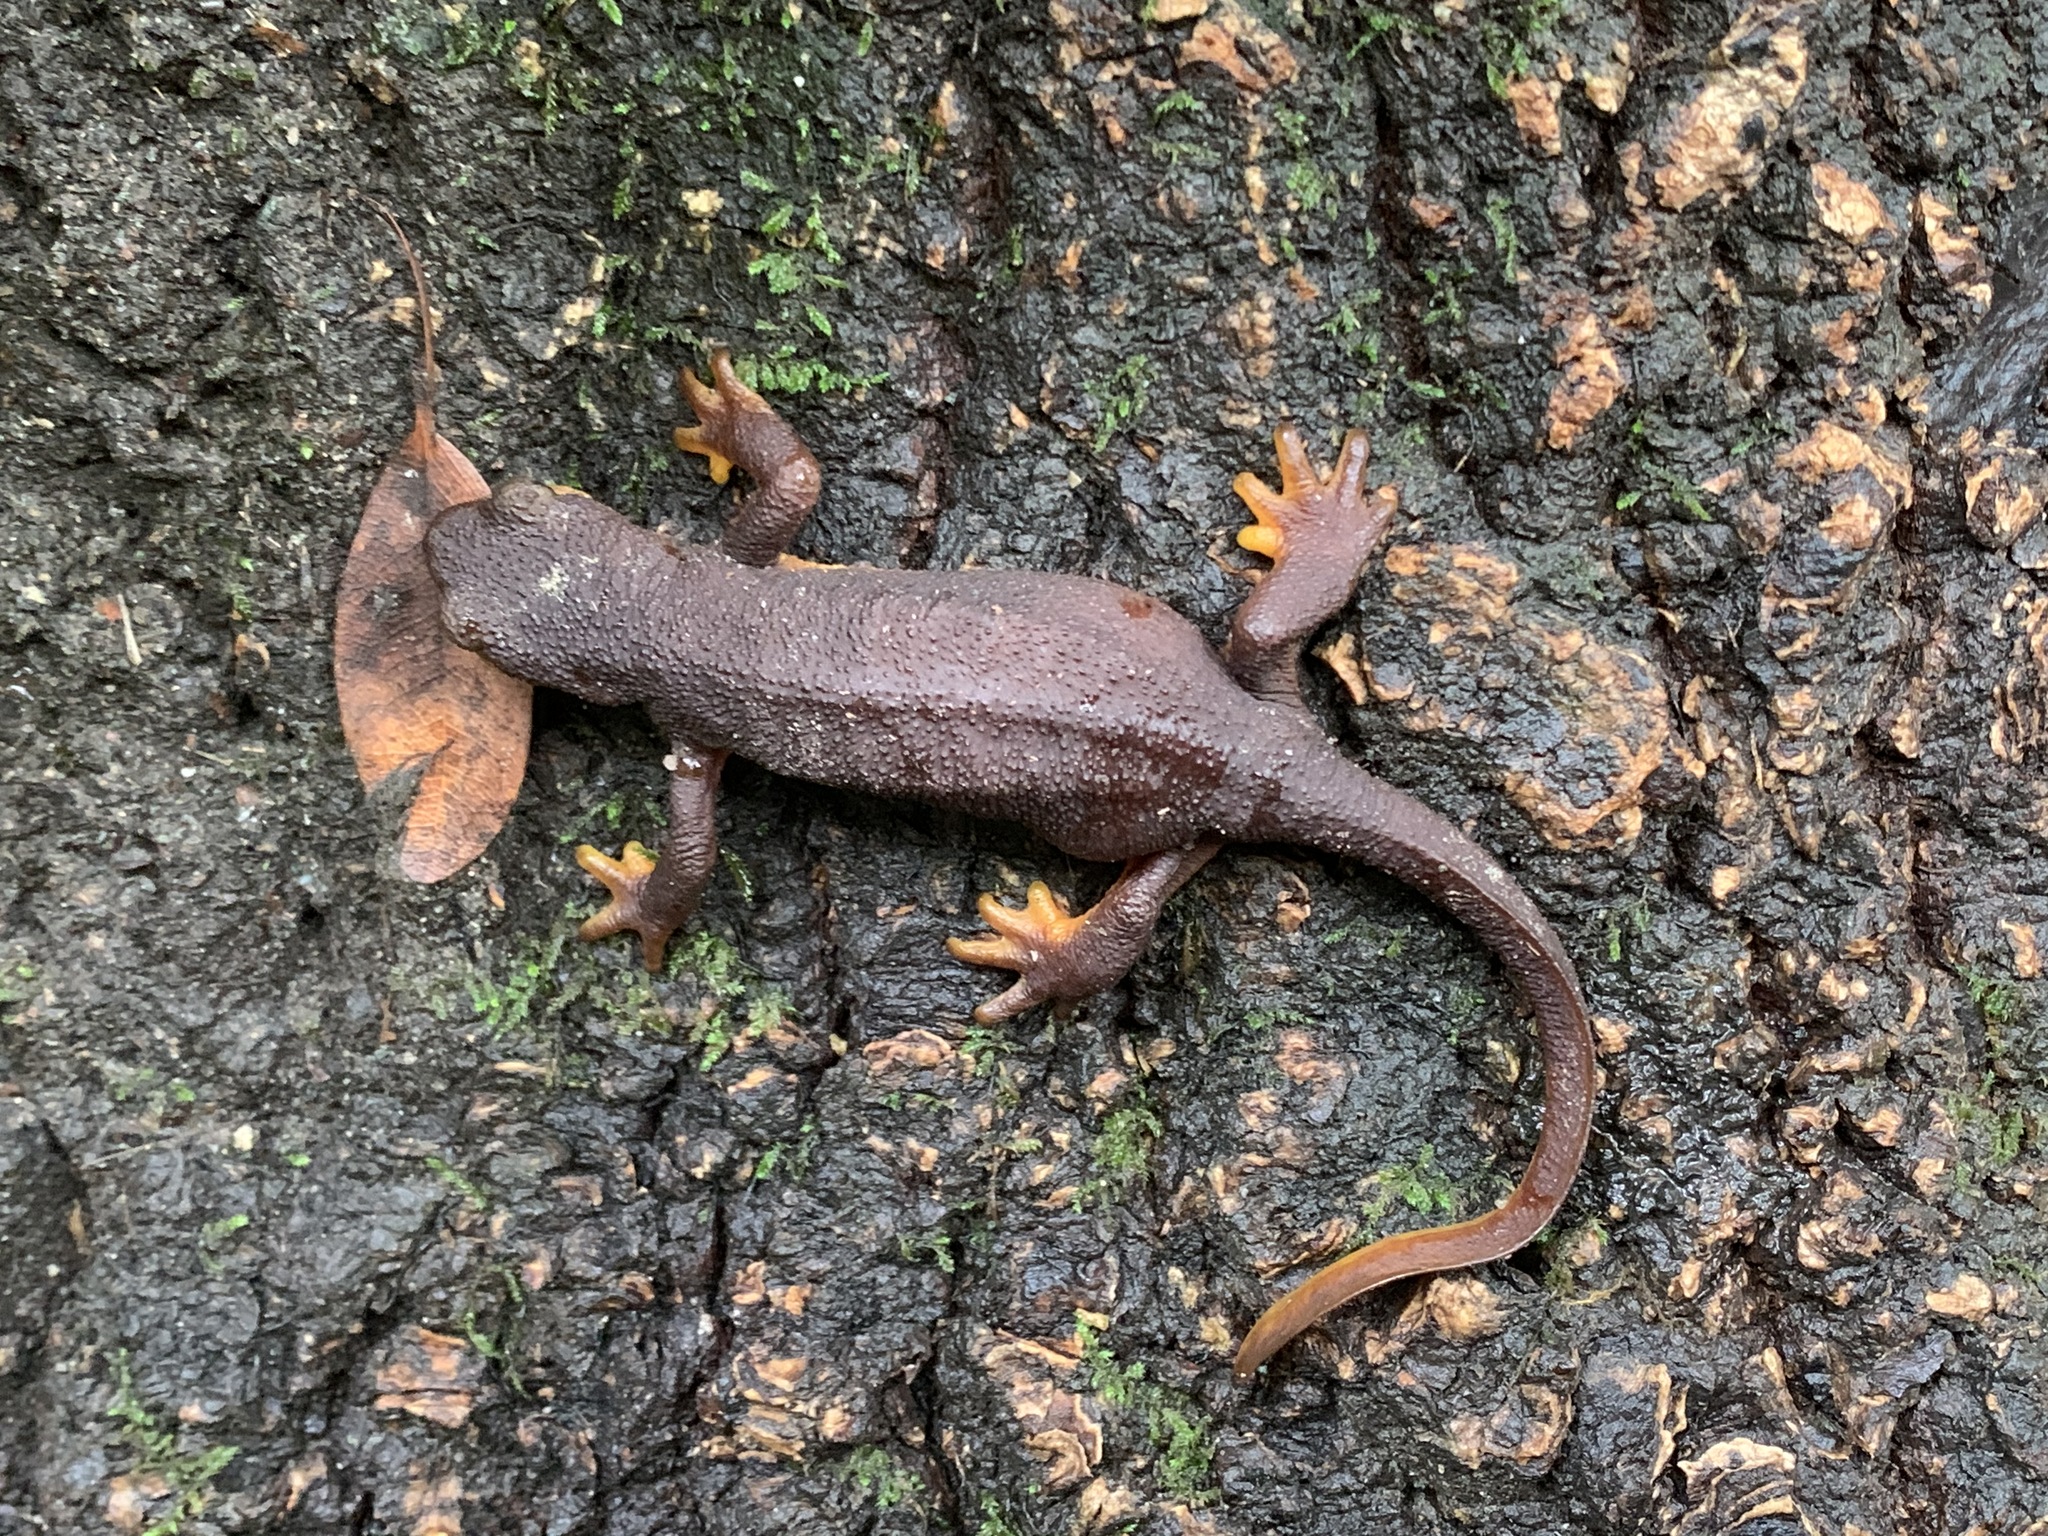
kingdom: Animalia
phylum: Chordata
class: Amphibia
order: Caudata
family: Salamandridae
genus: Taricha
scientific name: Taricha torosa
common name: California newt
